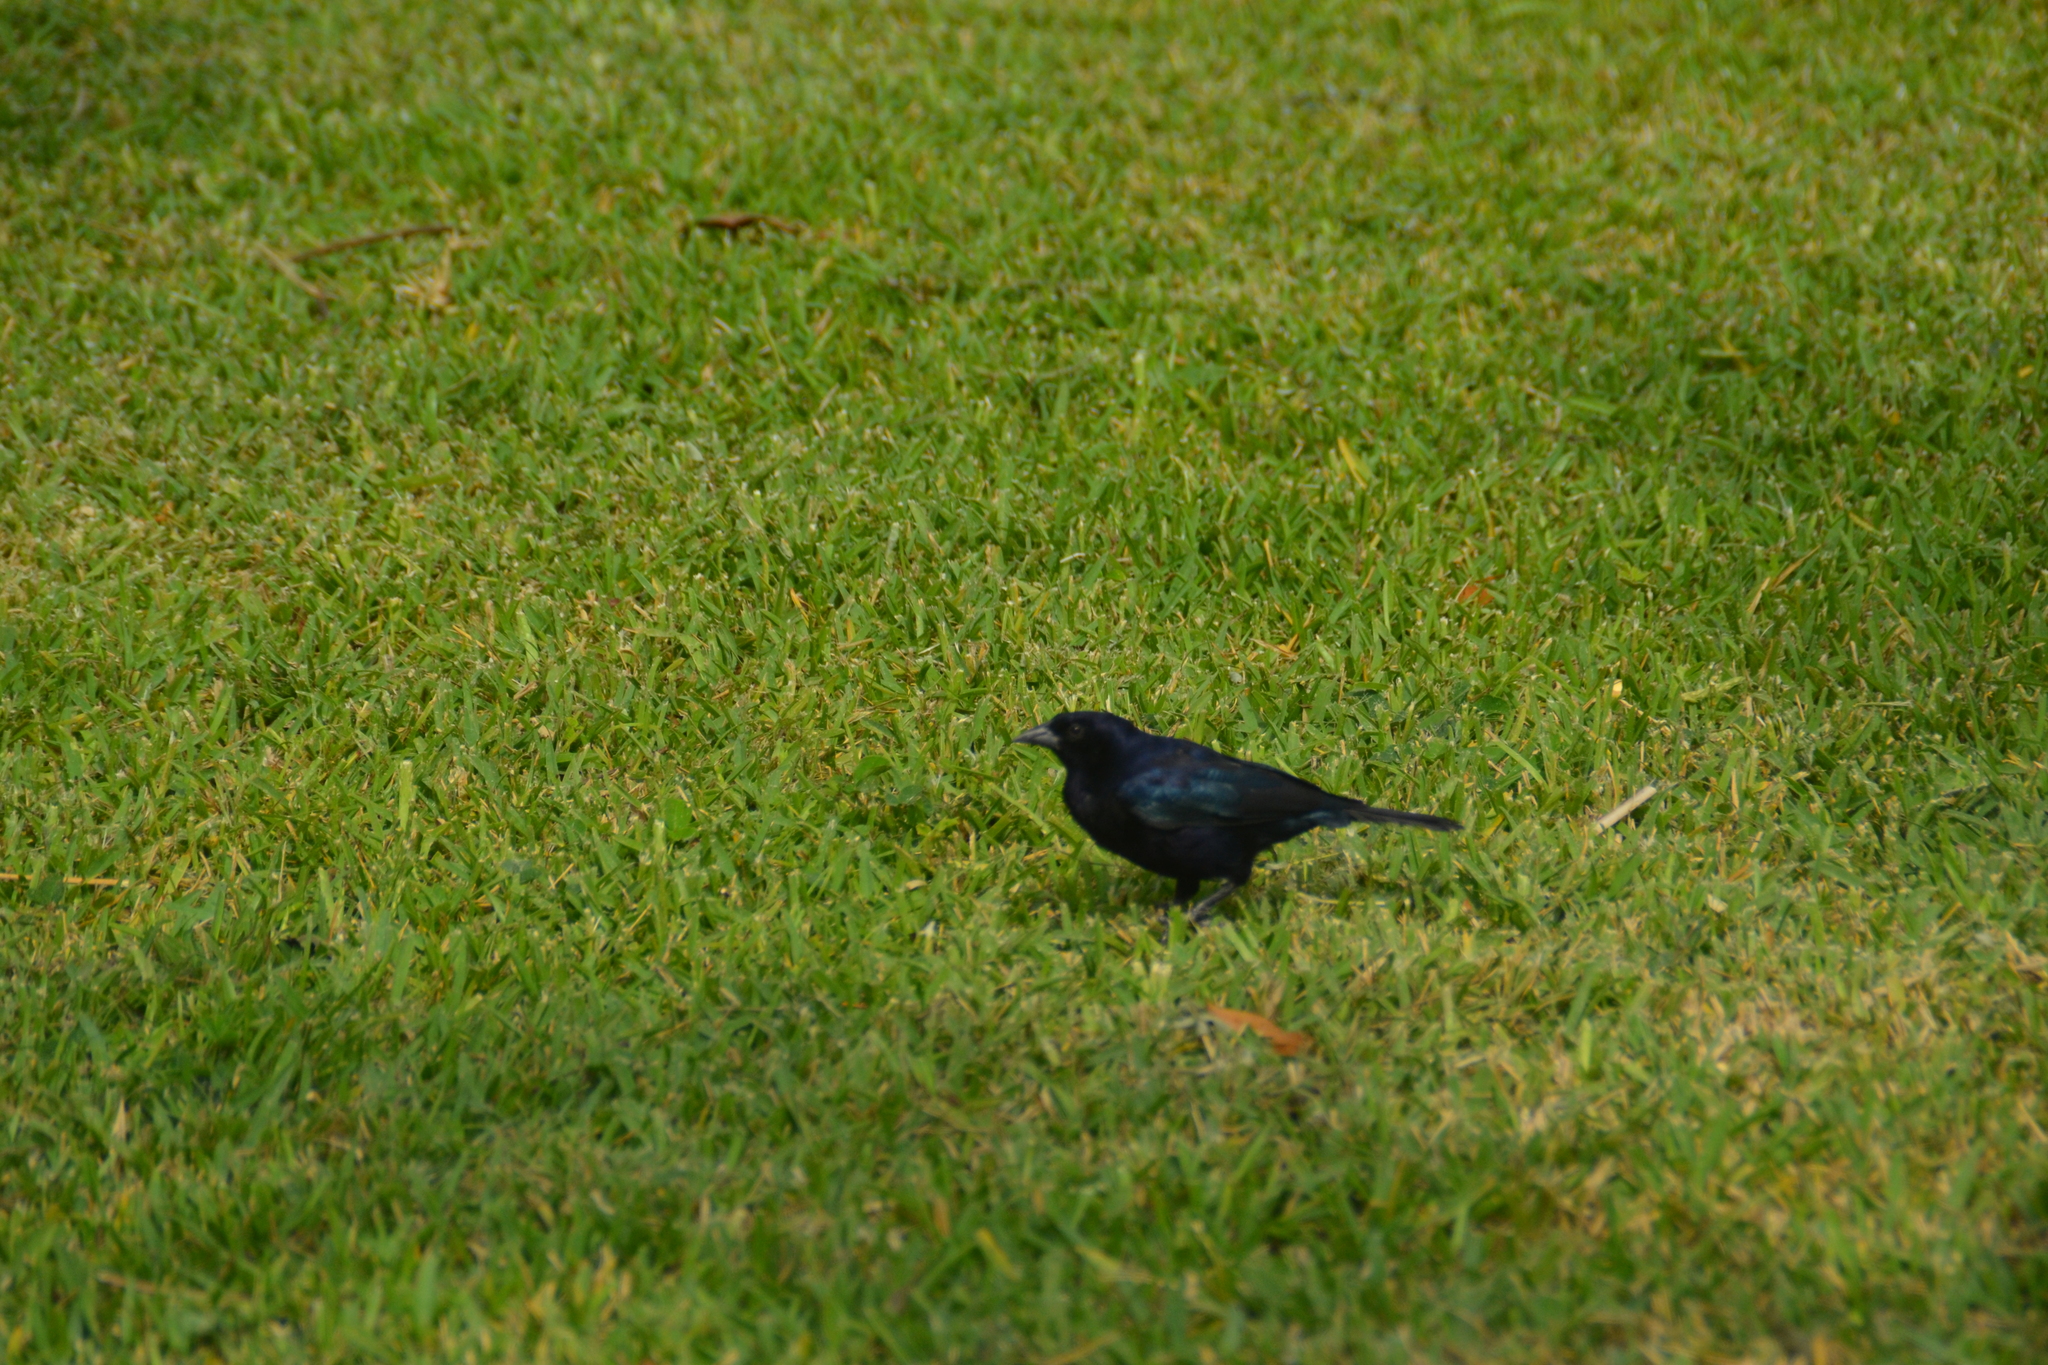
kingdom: Animalia
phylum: Chordata
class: Aves
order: Passeriformes
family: Icteridae
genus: Molothrus
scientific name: Molothrus bonariensis
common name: Shiny cowbird
